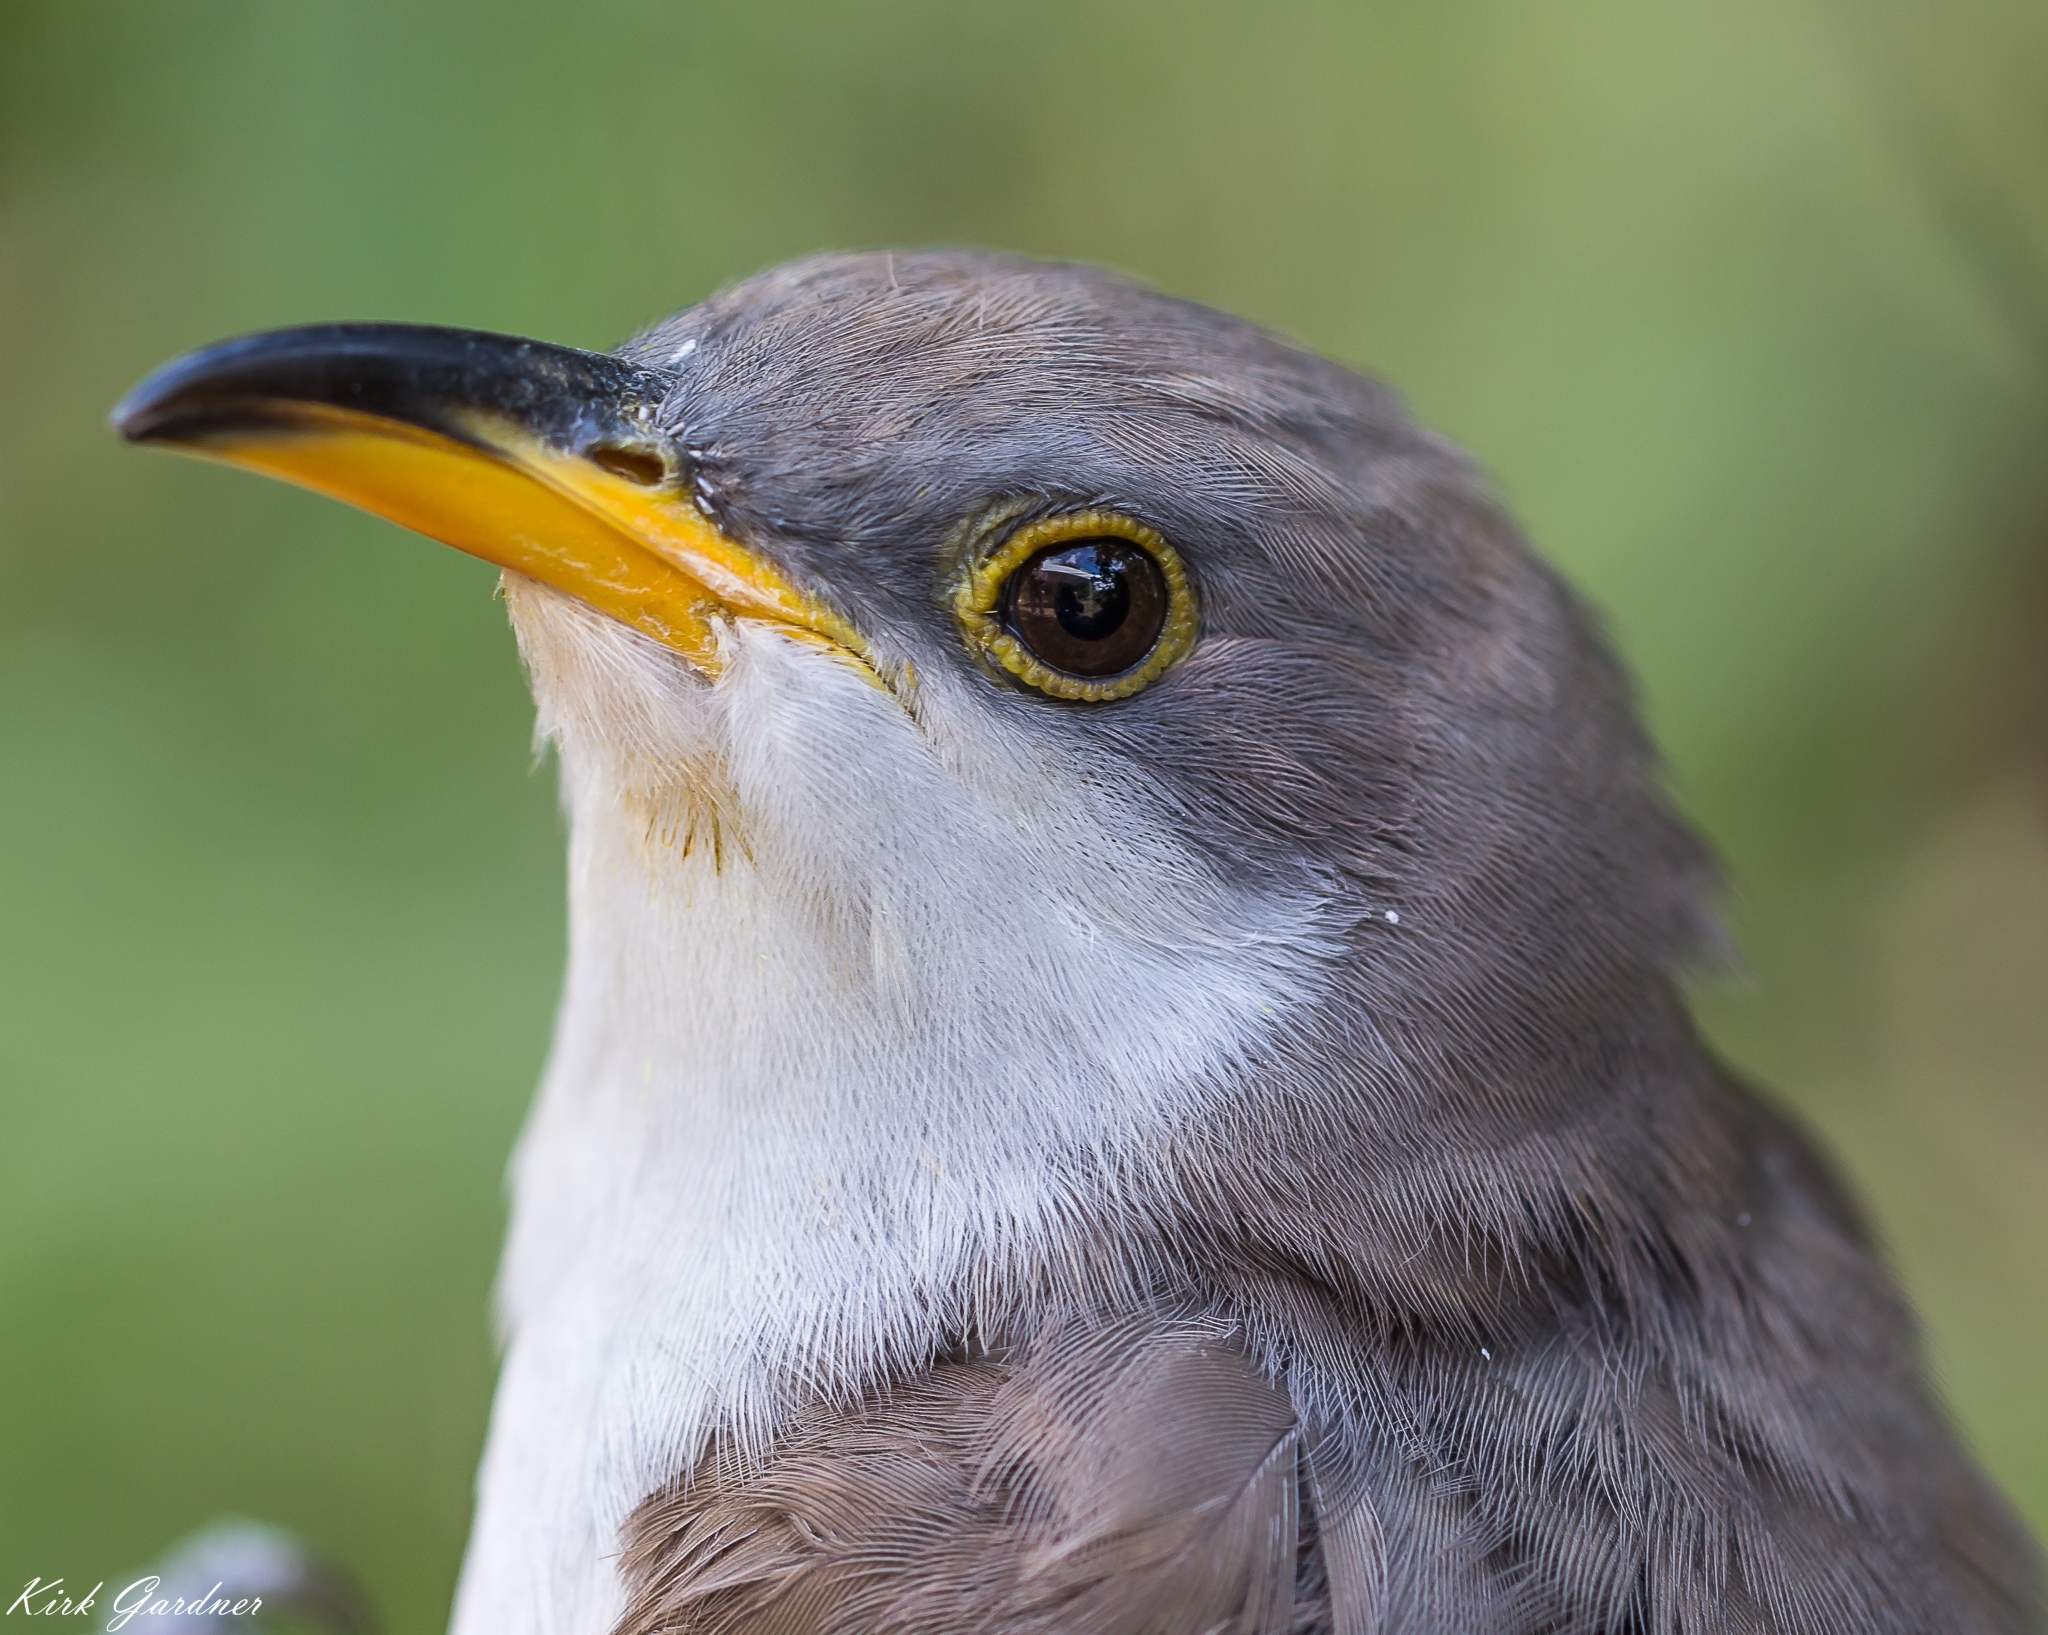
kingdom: Animalia
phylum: Chordata
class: Aves
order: Cuculiformes
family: Cuculidae
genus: Coccyzus
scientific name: Coccyzus americanus
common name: Yellow-billed cuckoo
